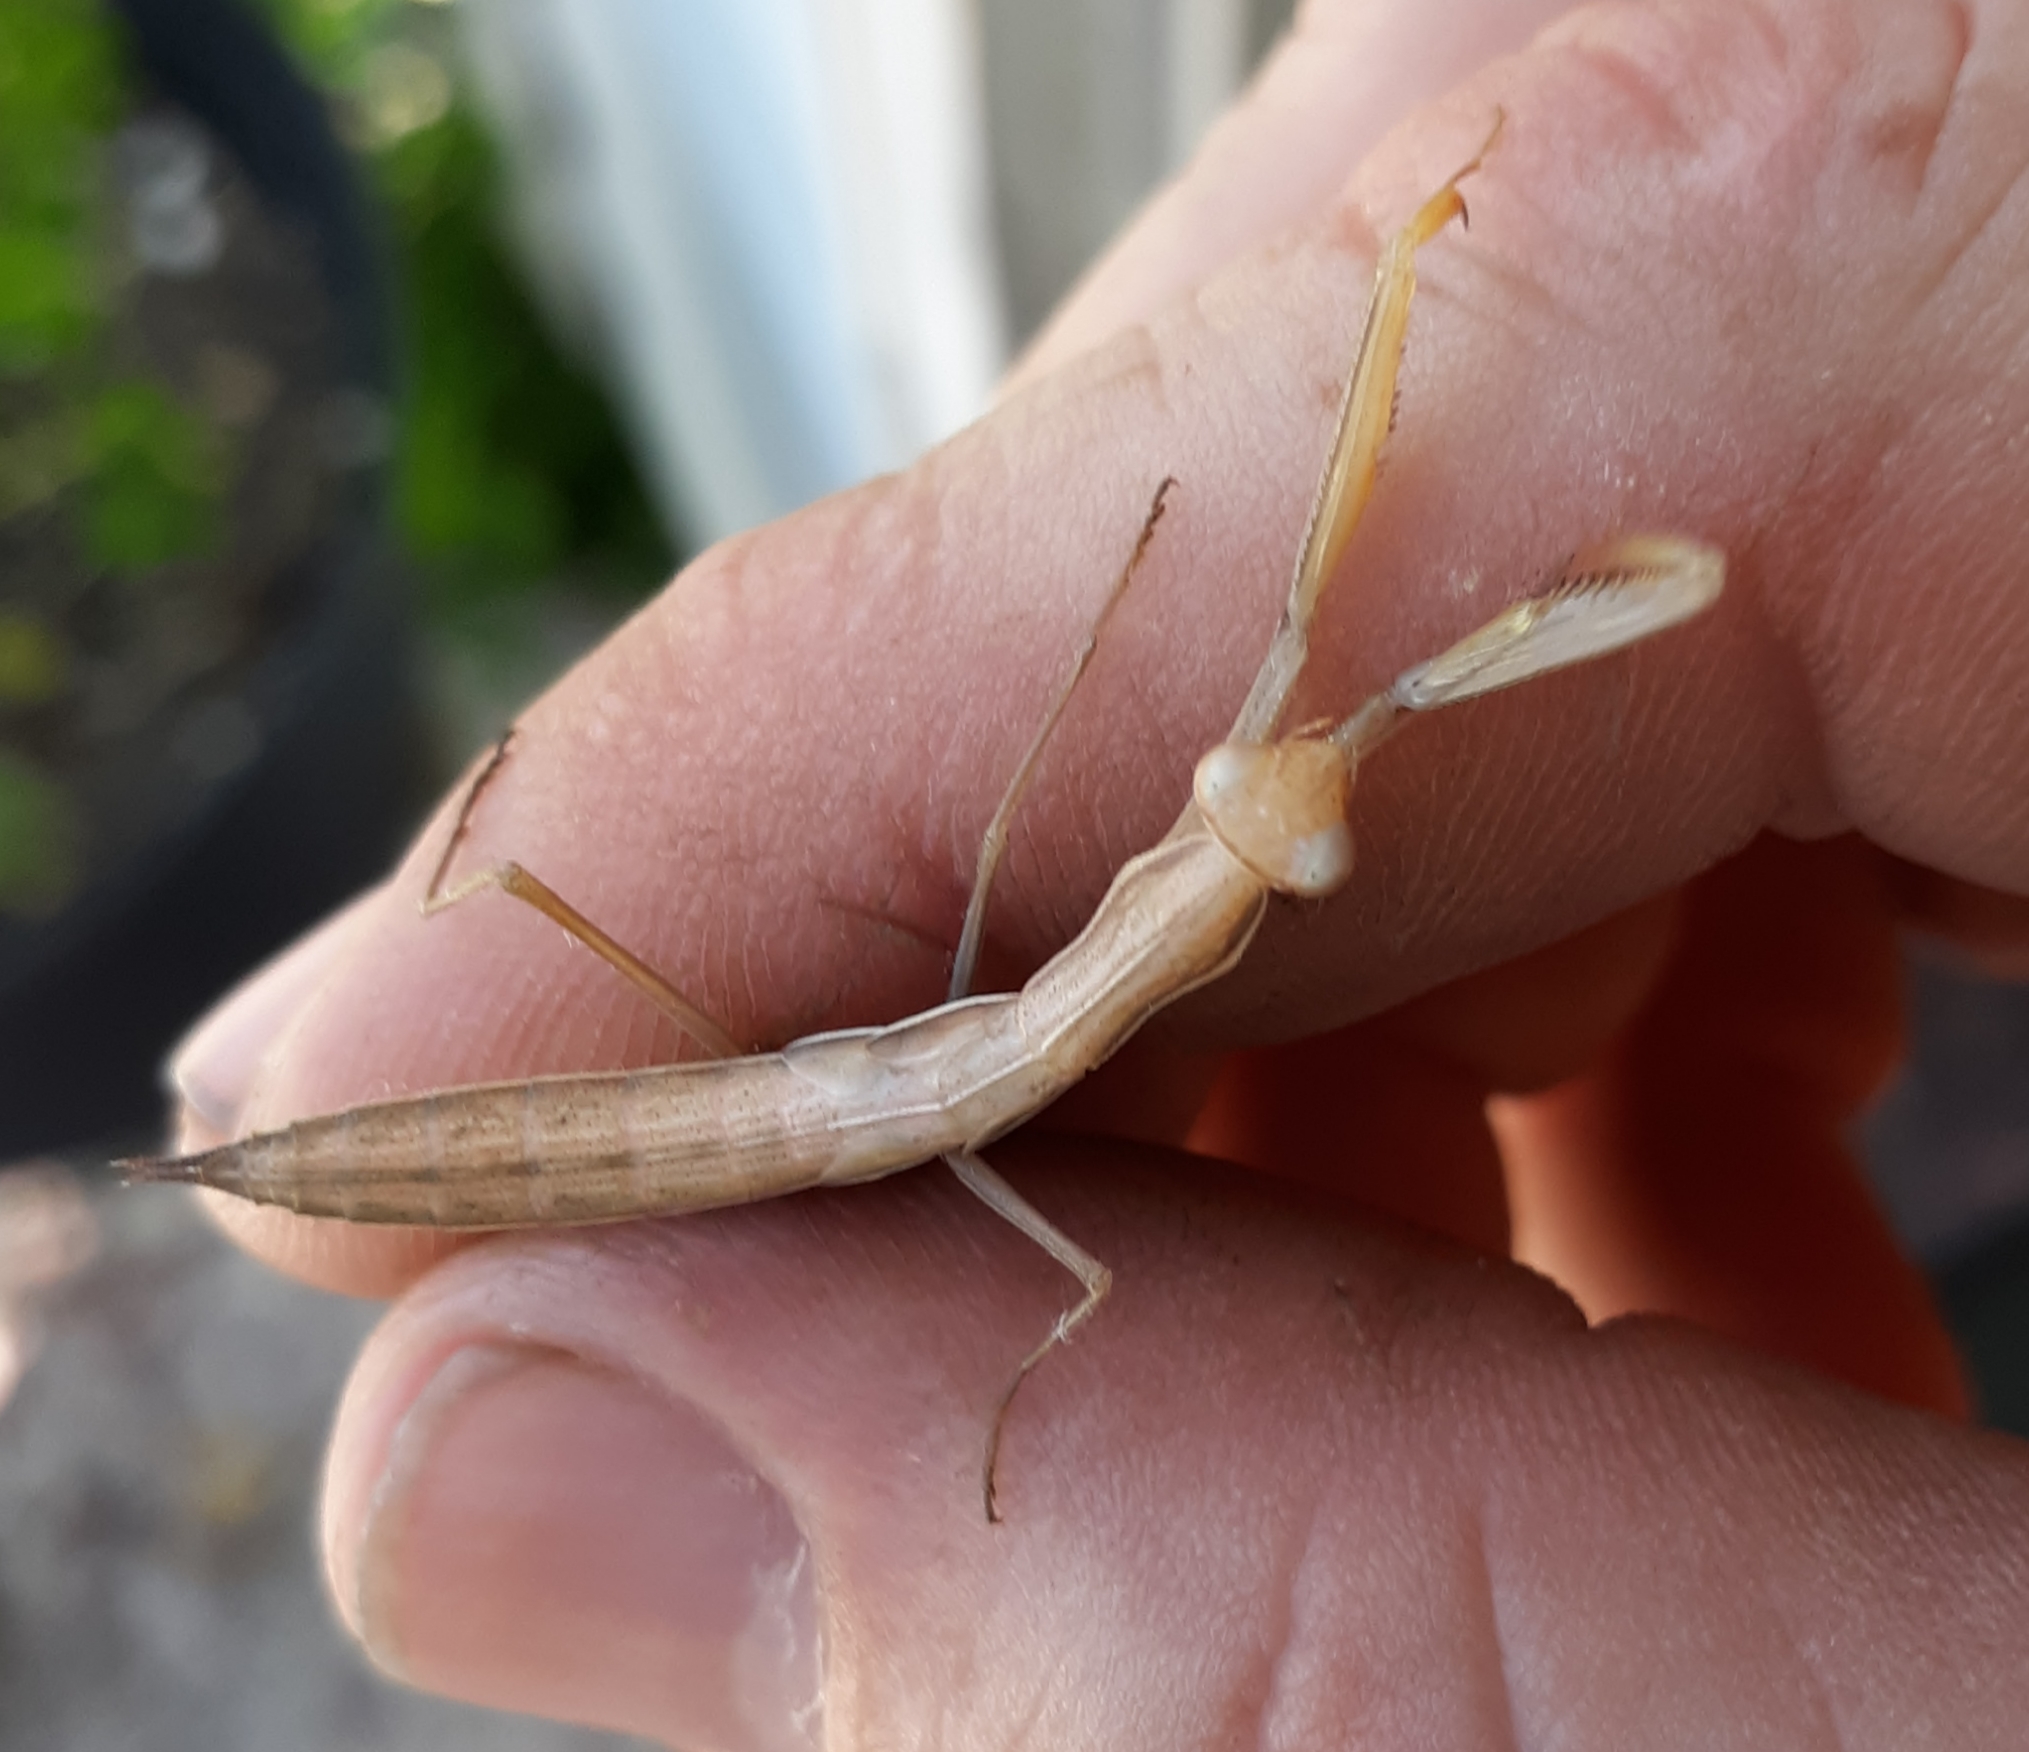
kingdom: Animalia
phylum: Arthropoda
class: Insecta
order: Mantodea
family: Mantidae
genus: Mantis
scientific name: Mantis religiosa
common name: Praying mantis
